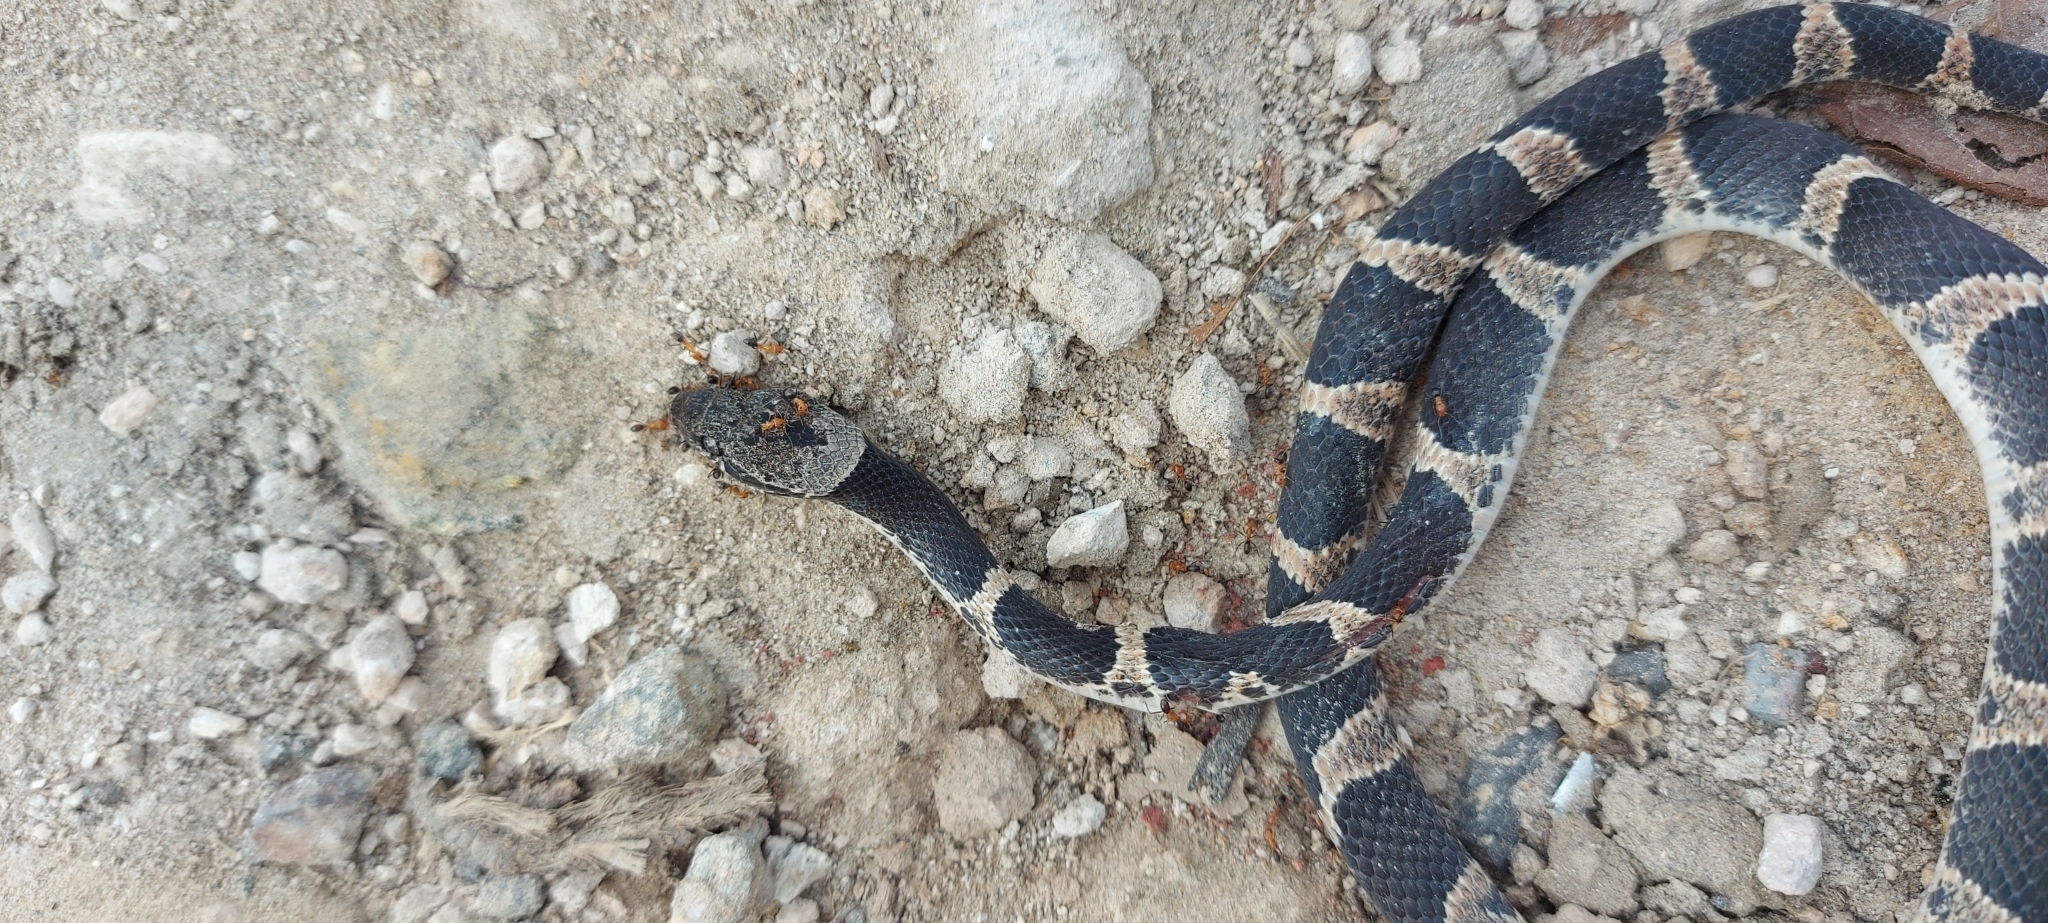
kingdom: Animalia
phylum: Chordata
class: Squamata
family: Colubridae
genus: Leptodeira
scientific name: Leptodeira maculata
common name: Southwestern cat-eyed snake
